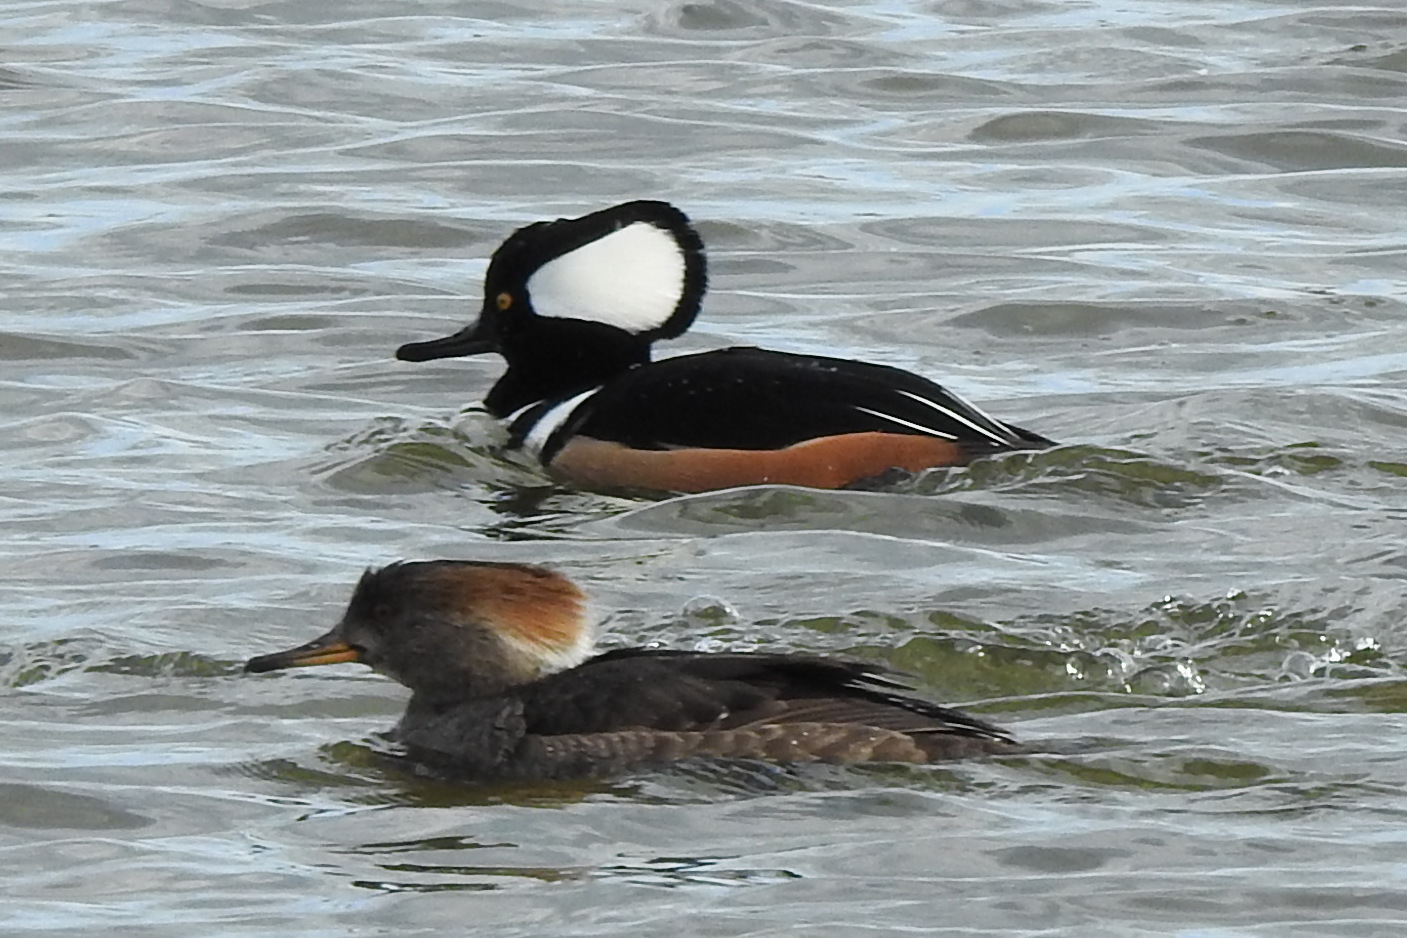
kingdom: Animalia
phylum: Chordata
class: Aves
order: Anseriformes
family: Anatidae
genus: Lophodytes
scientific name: Lophodytes cucullatus
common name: Hooded merganser
